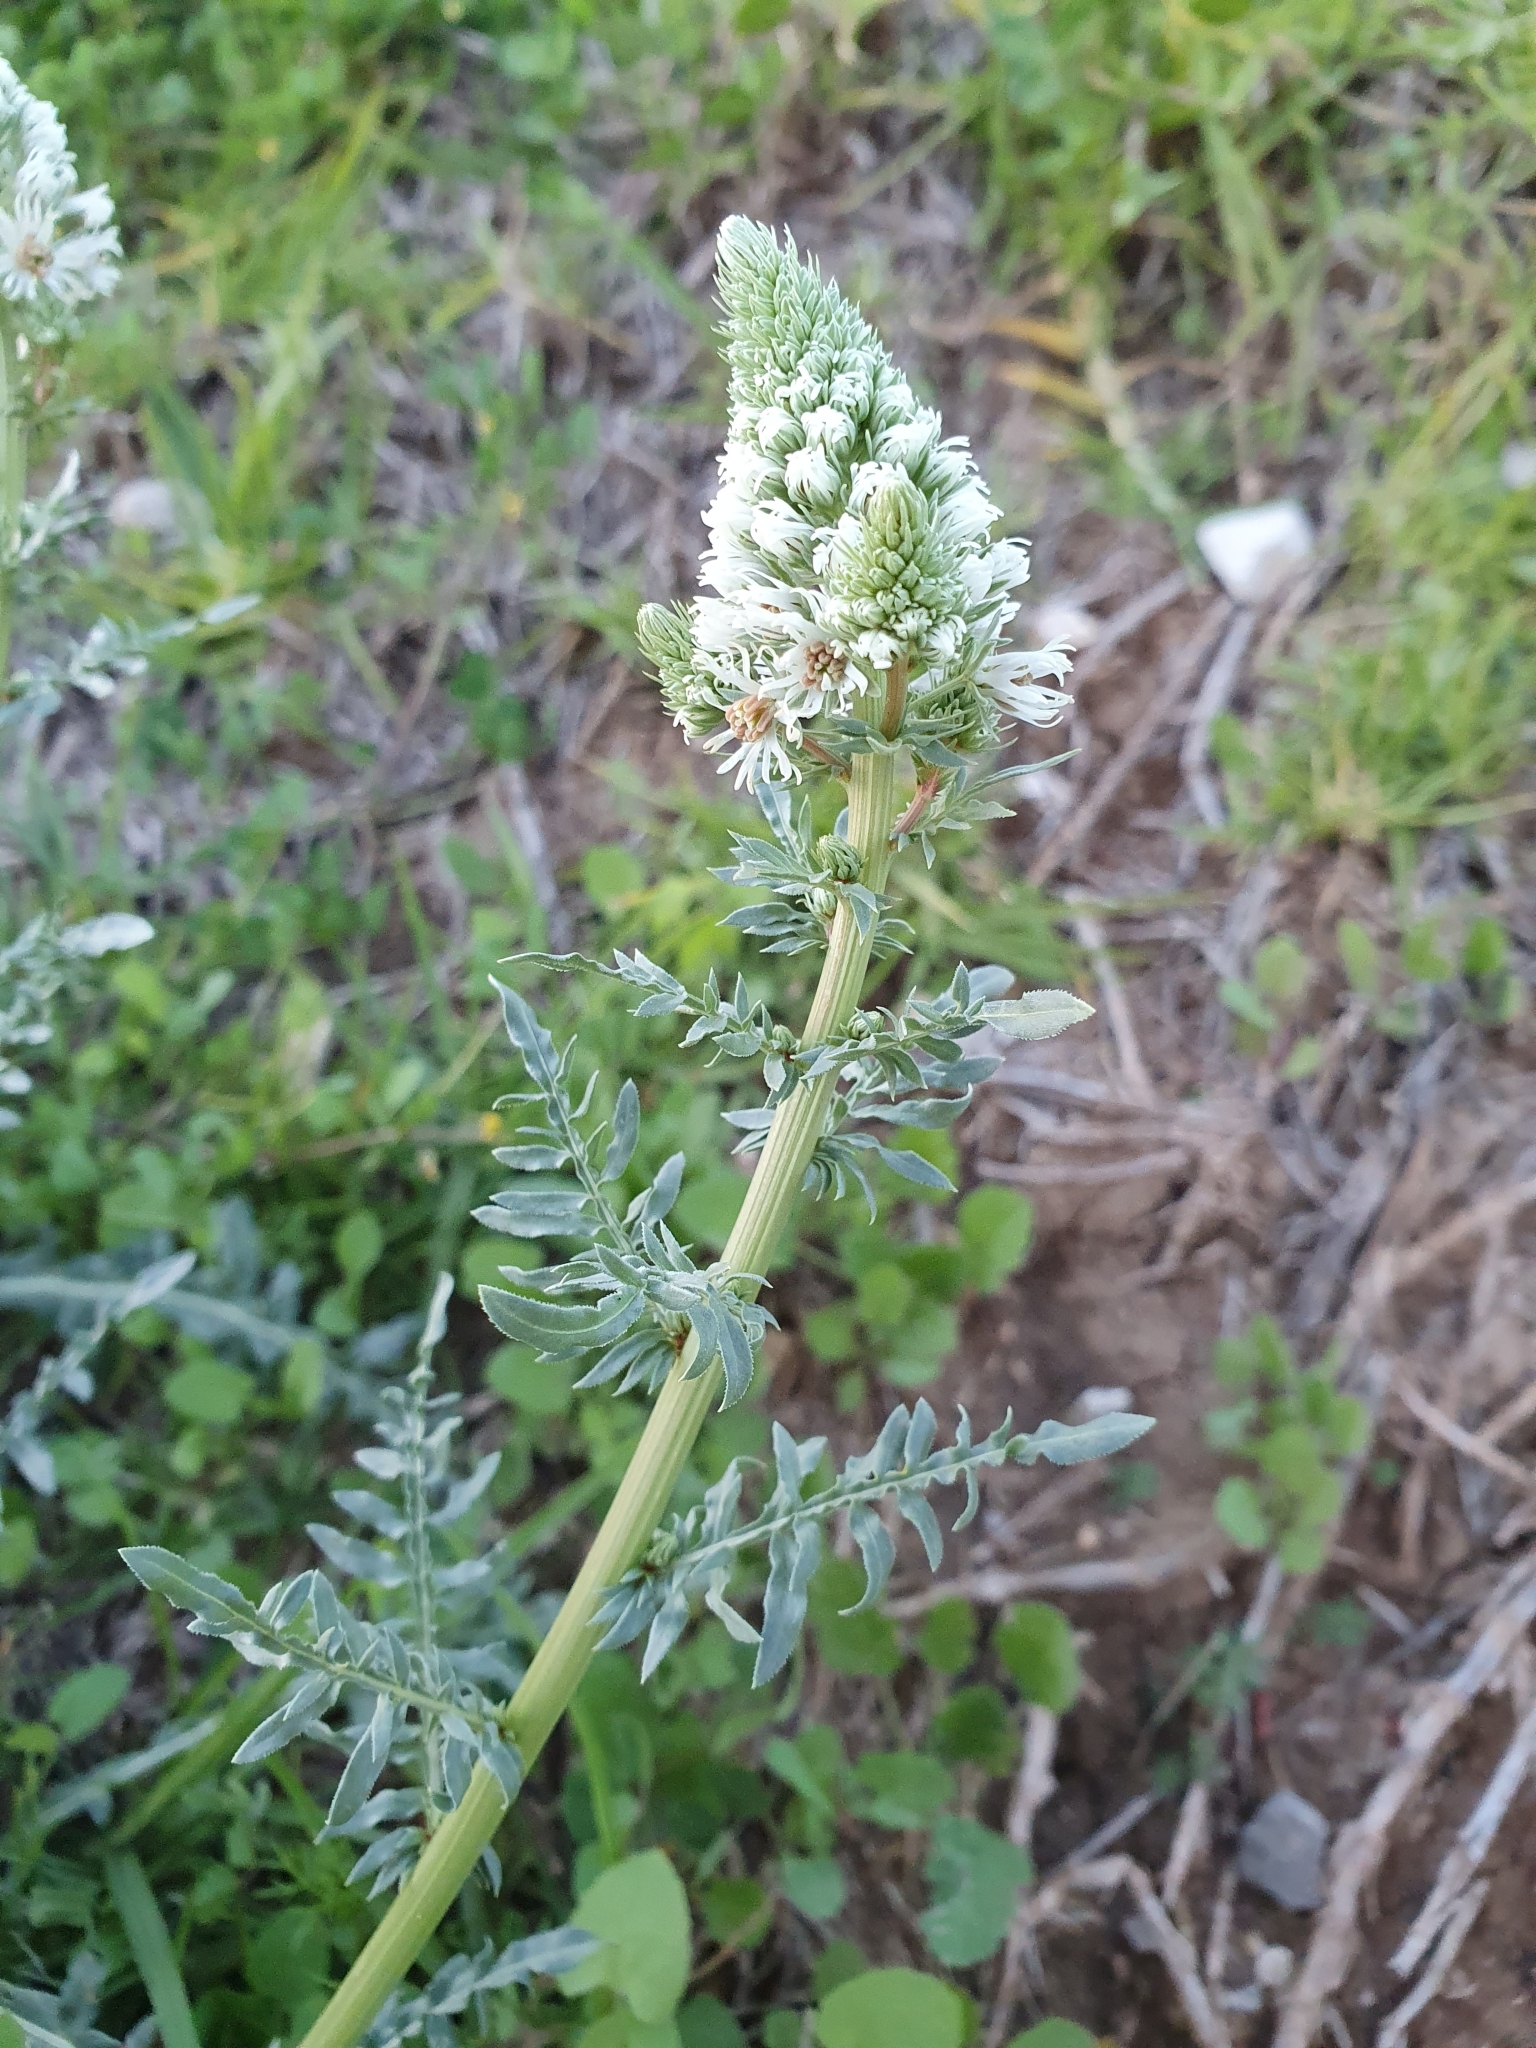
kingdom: Plantae
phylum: Tracheophyta
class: Magnoliopsida
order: Brassicales
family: Resedaceae
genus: Reseda
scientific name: Reseda alba
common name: White mignonette
